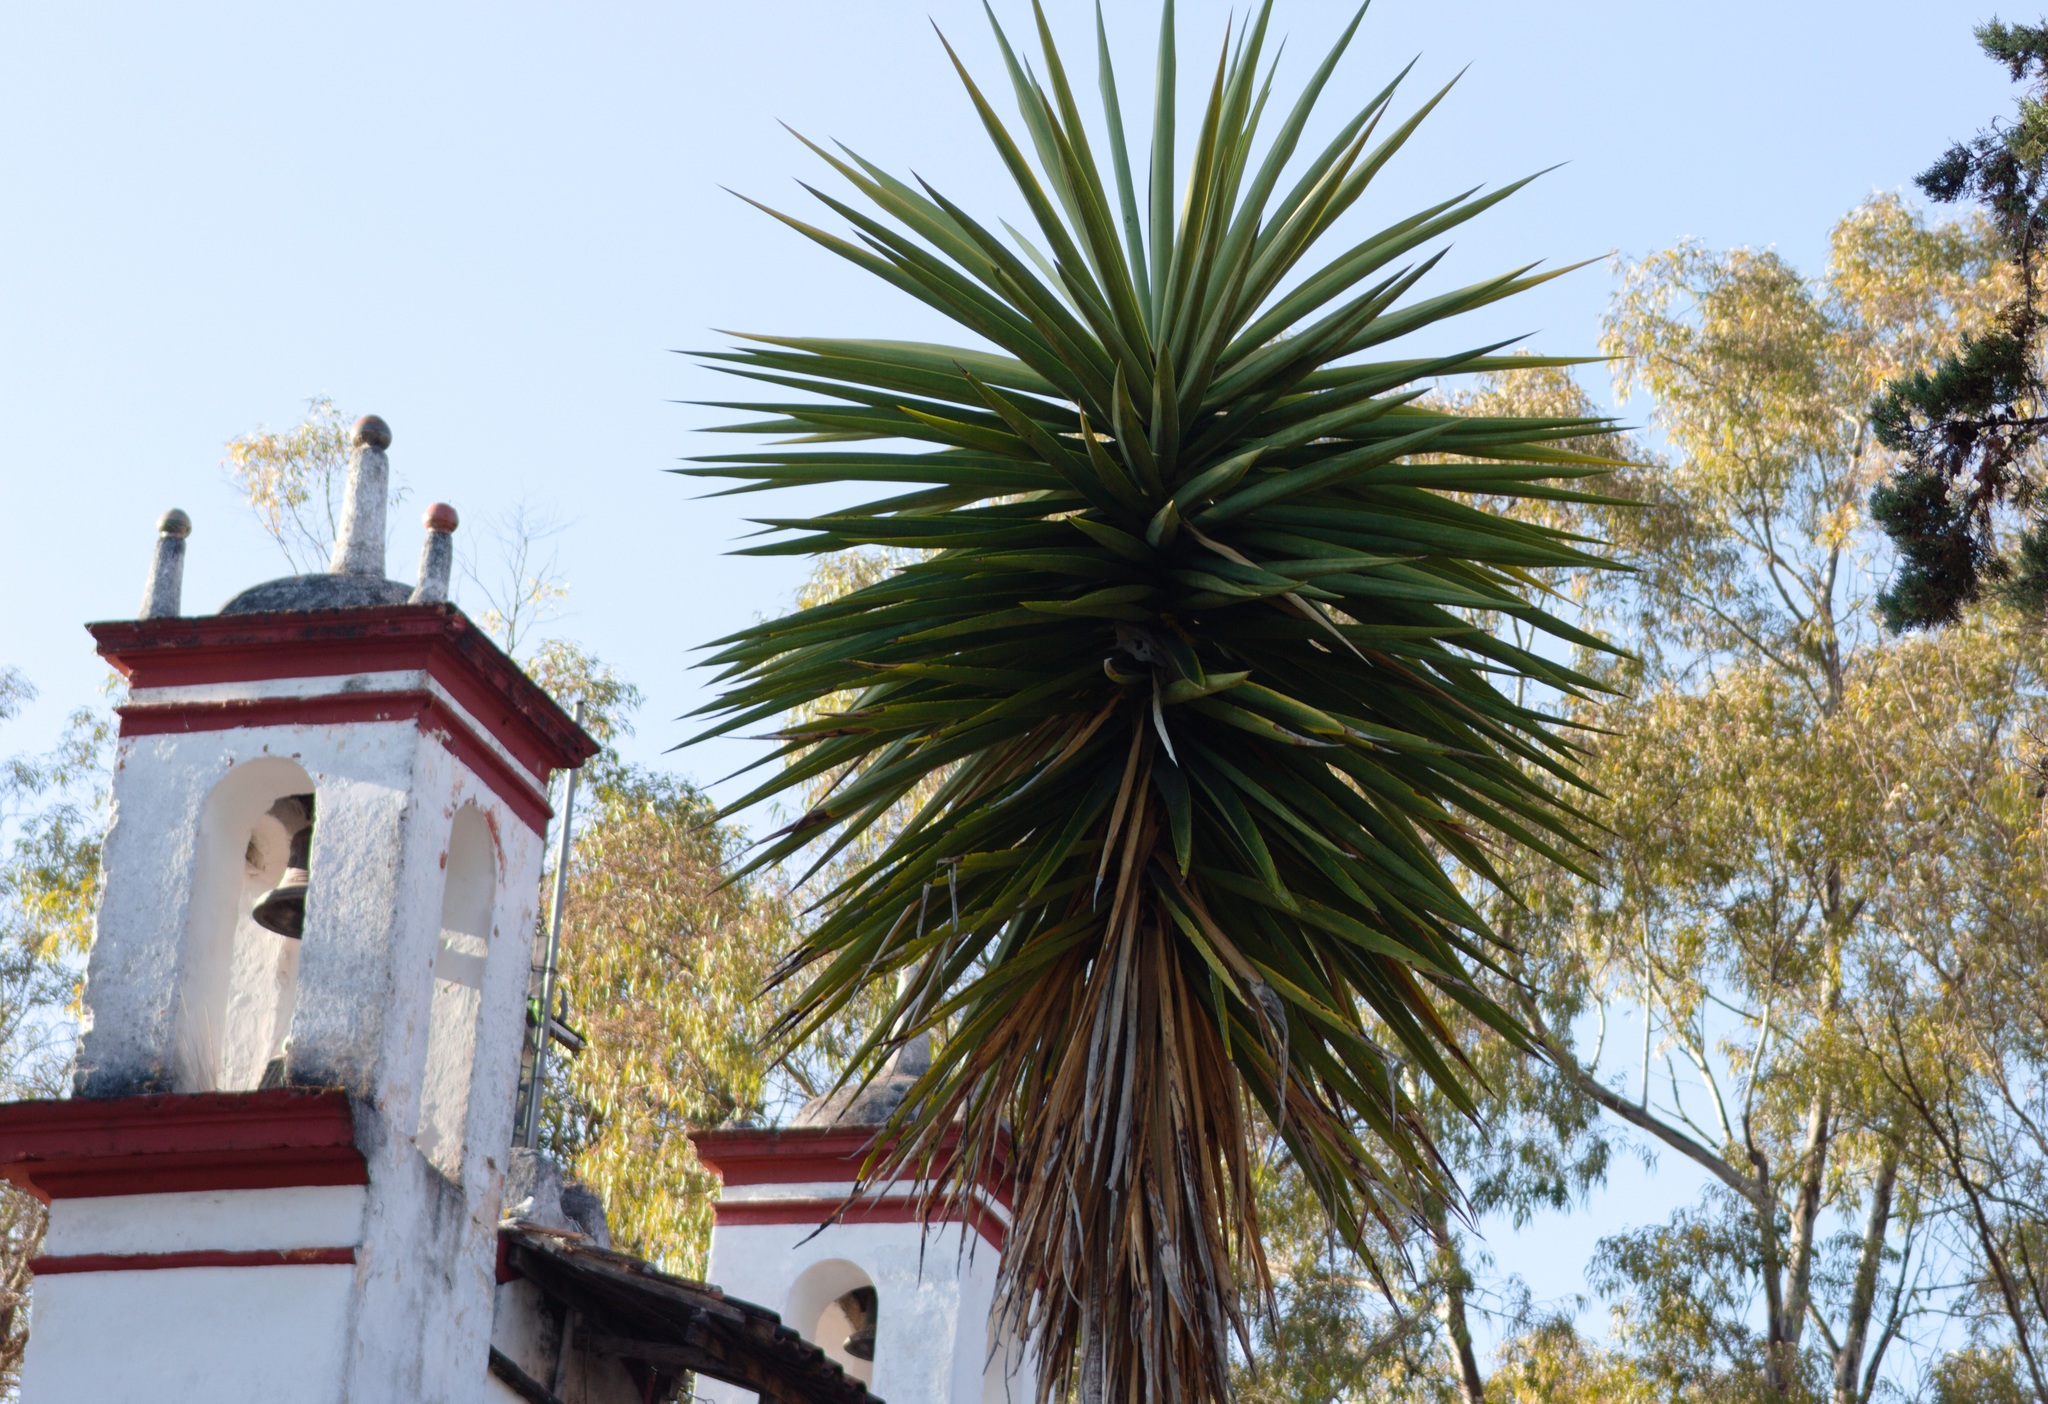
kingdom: Plantae
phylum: Tracheophyta
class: Liliopsida
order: Asparagales
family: Asparagaceae
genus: Yucca
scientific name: Yucca gigantea
